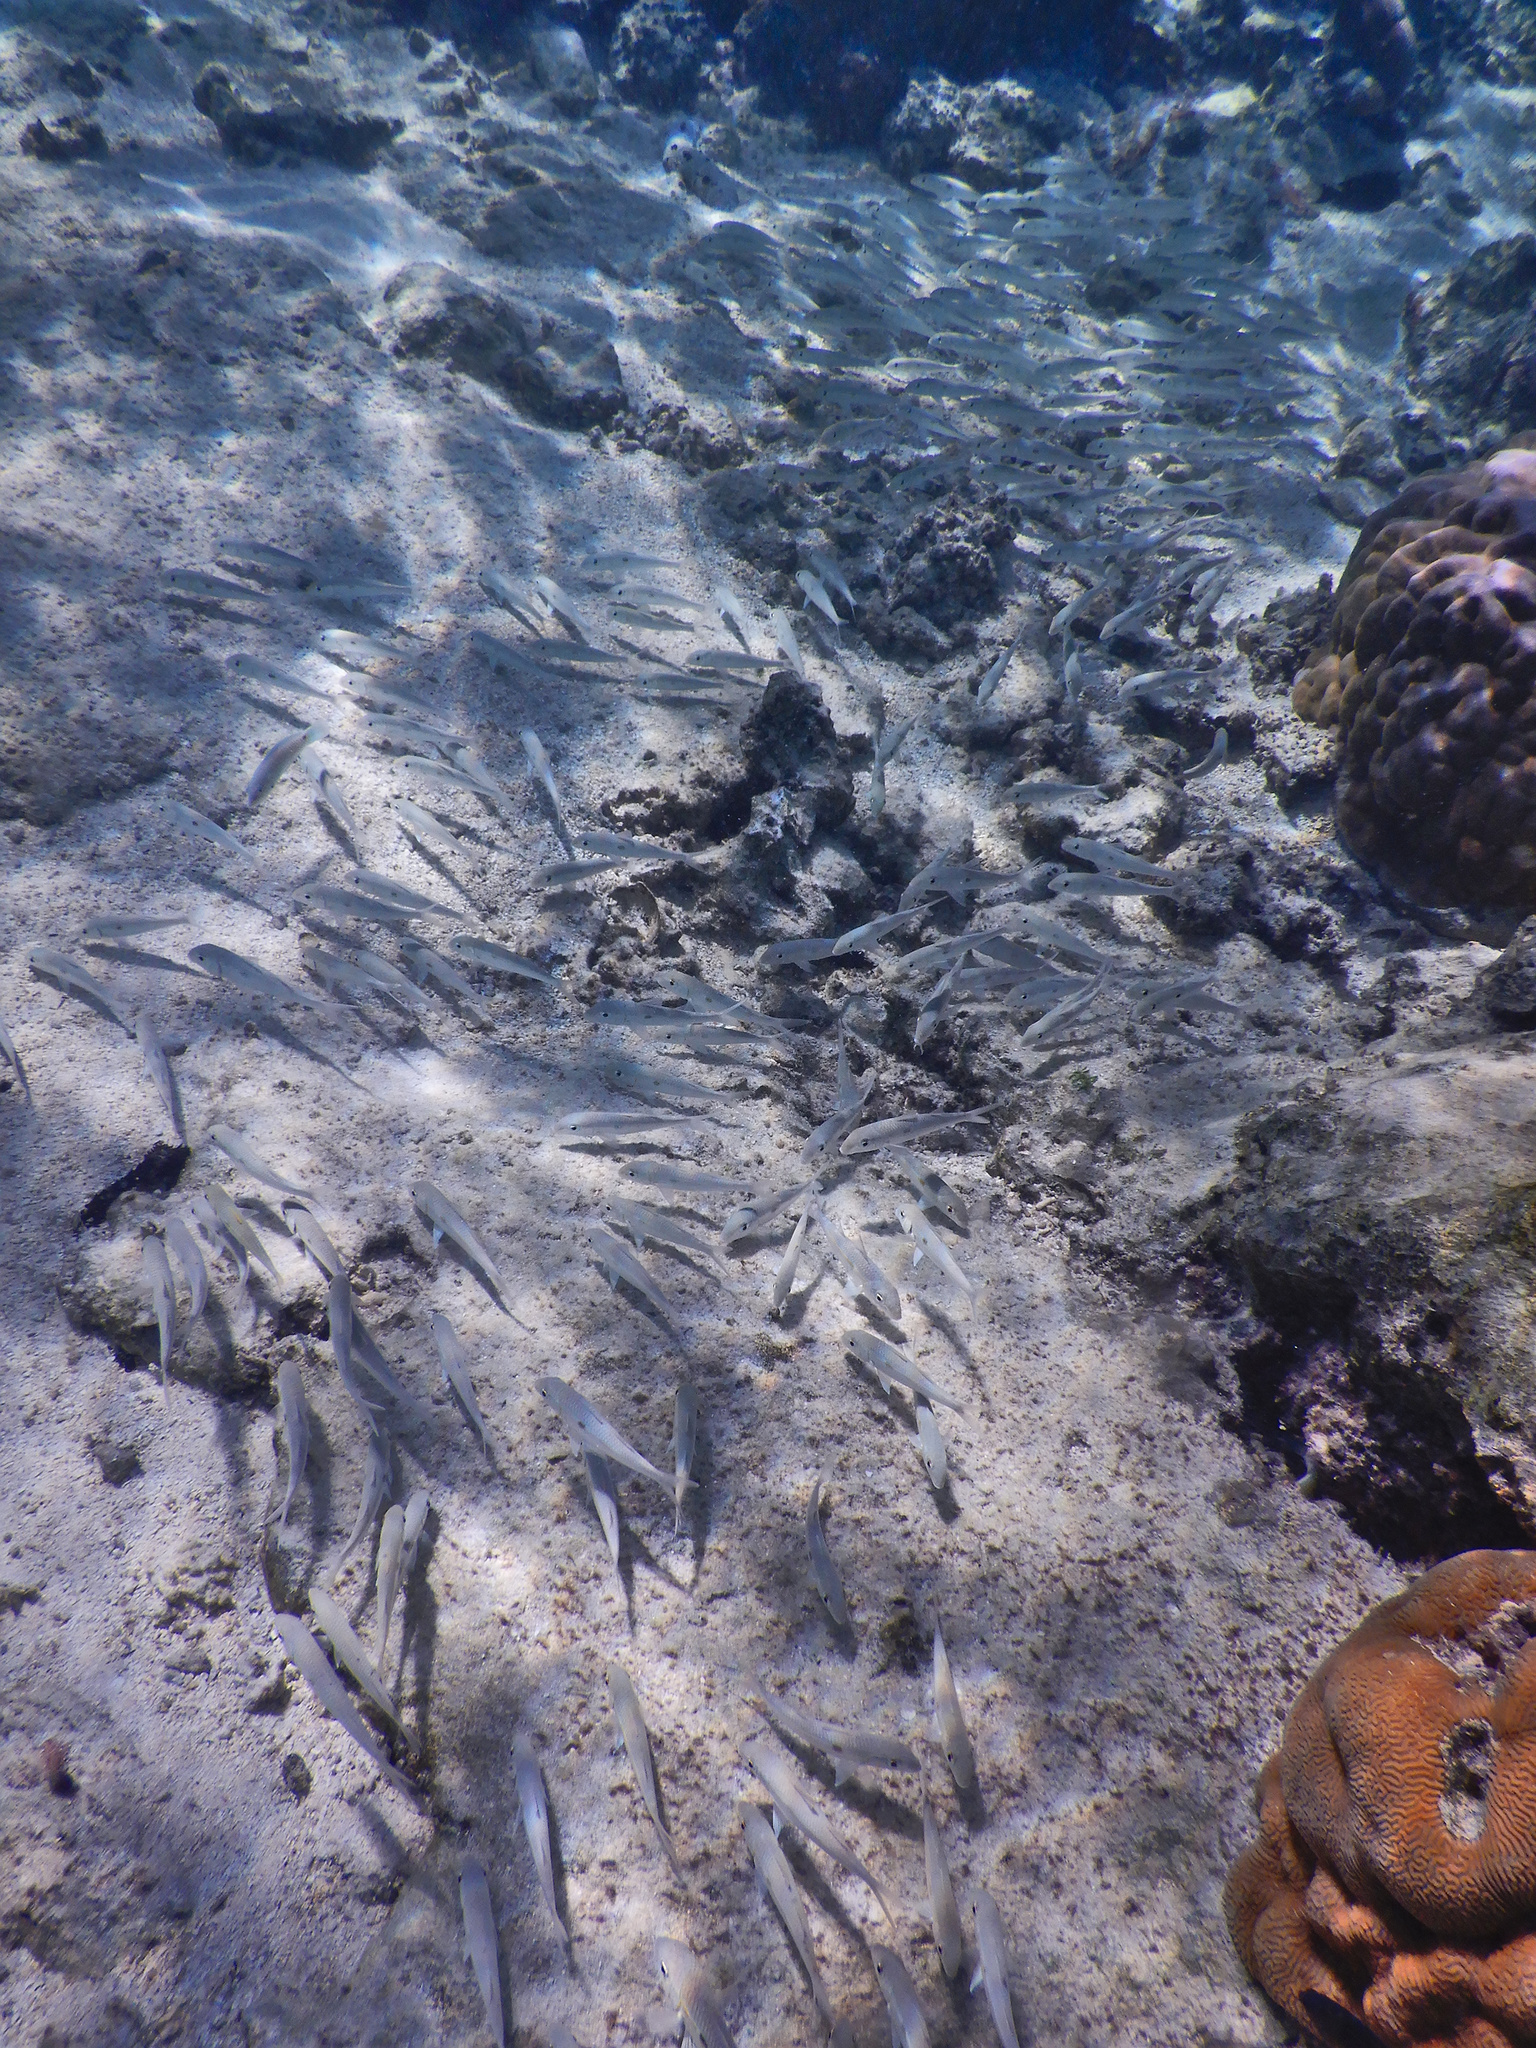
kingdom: Animalia
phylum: Chordata
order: Perciformes
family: Mullidae
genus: Mulloidichthys
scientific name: Mulloidichthys flavolineatus
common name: Yellowstripe goatfish
